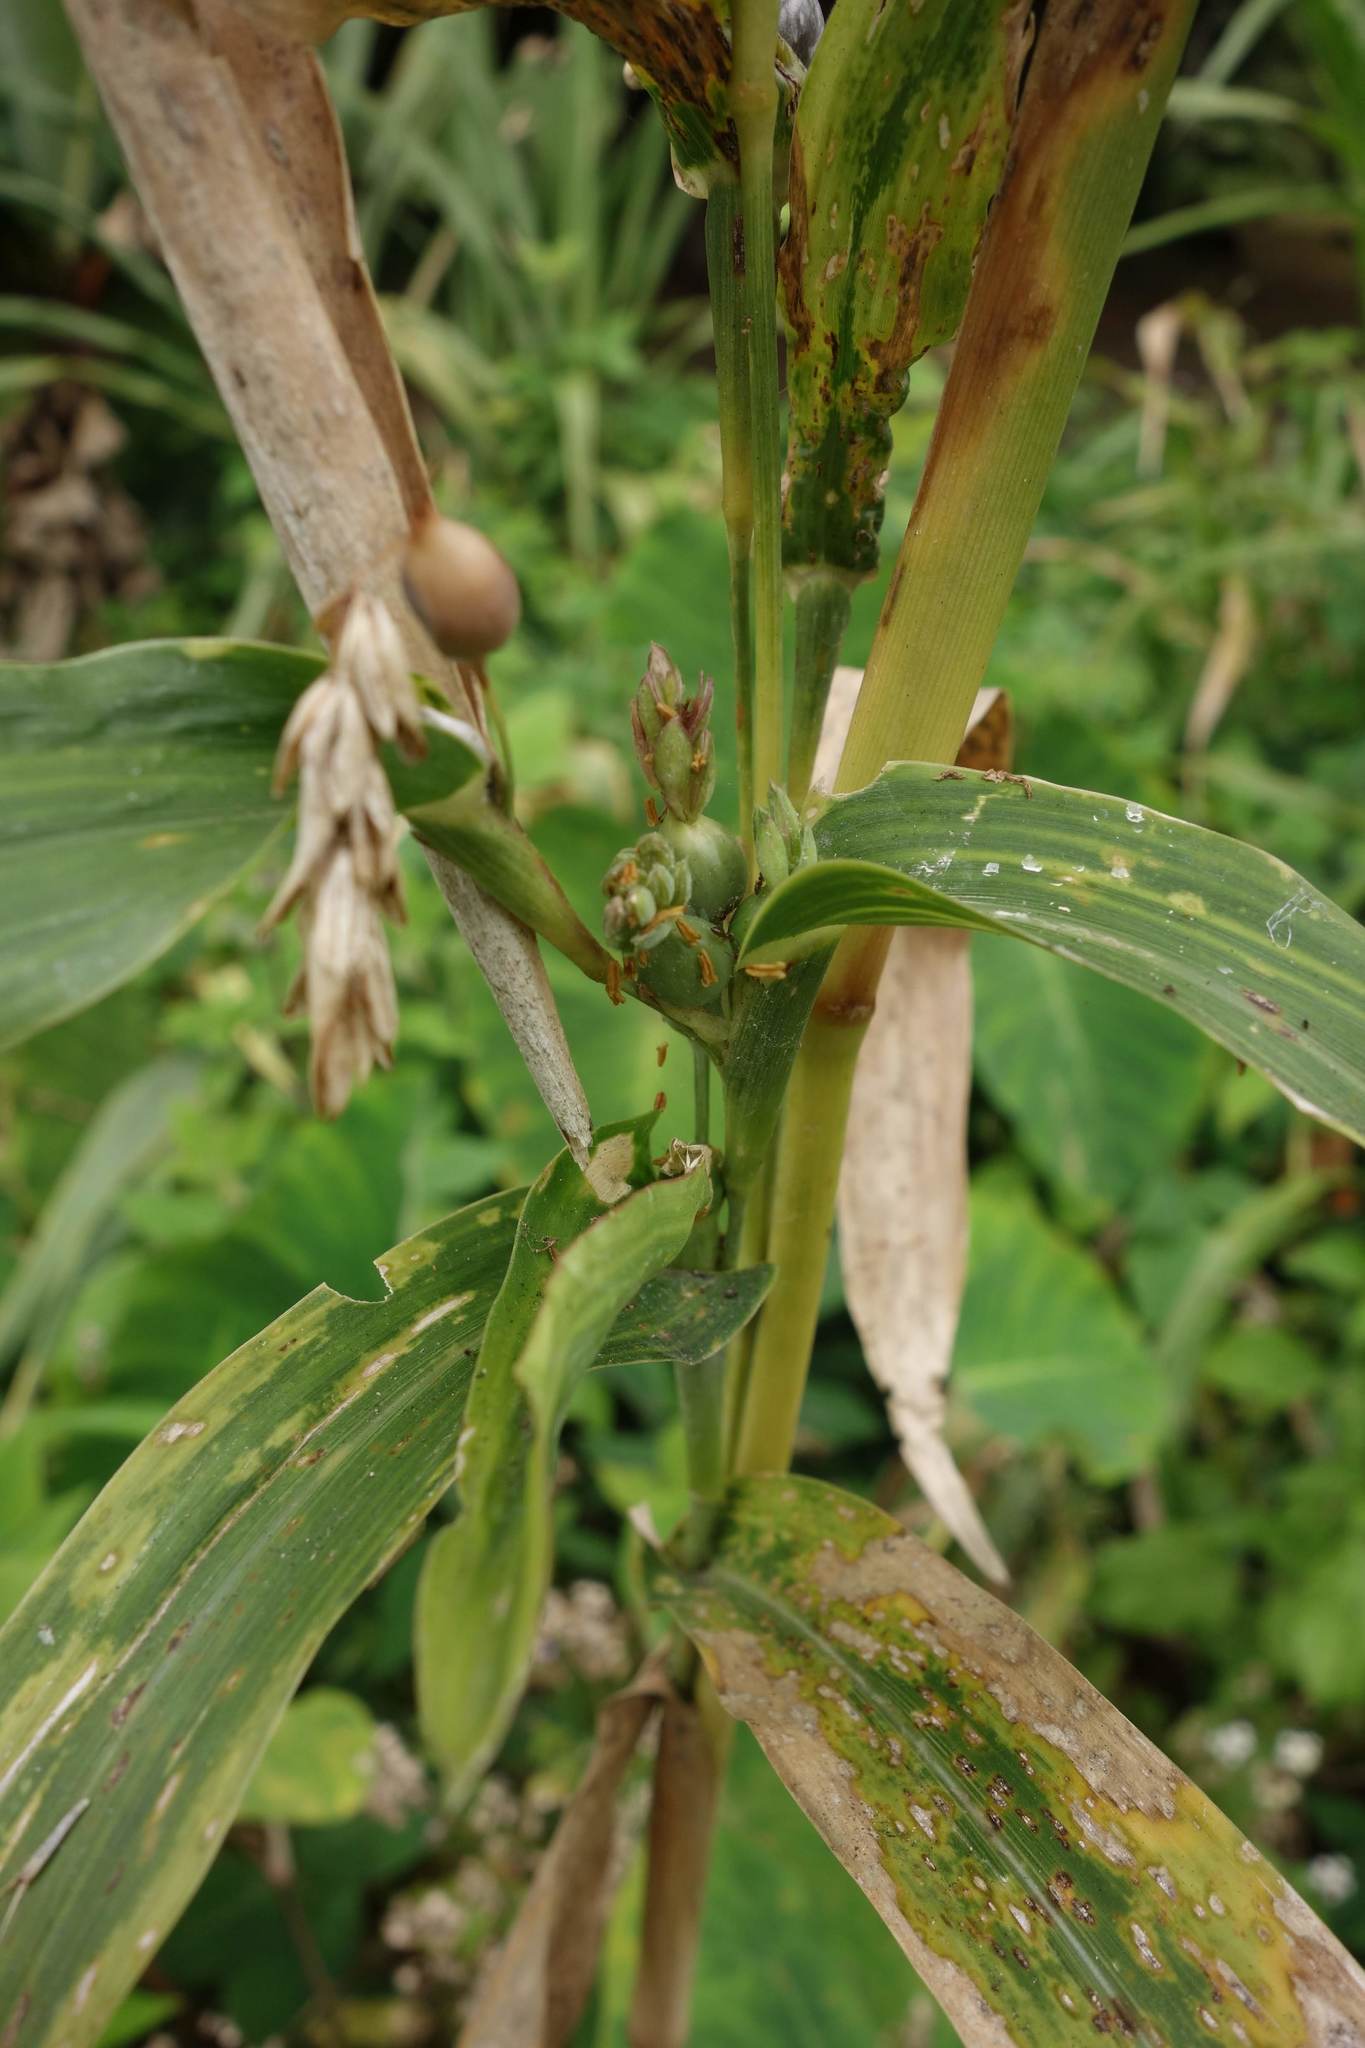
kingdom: Plantae
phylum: Tracheophyta
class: Liliopsida
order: Poales
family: Poaceae
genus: Coix
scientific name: Coix lacryma-jobi
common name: Job's tears
